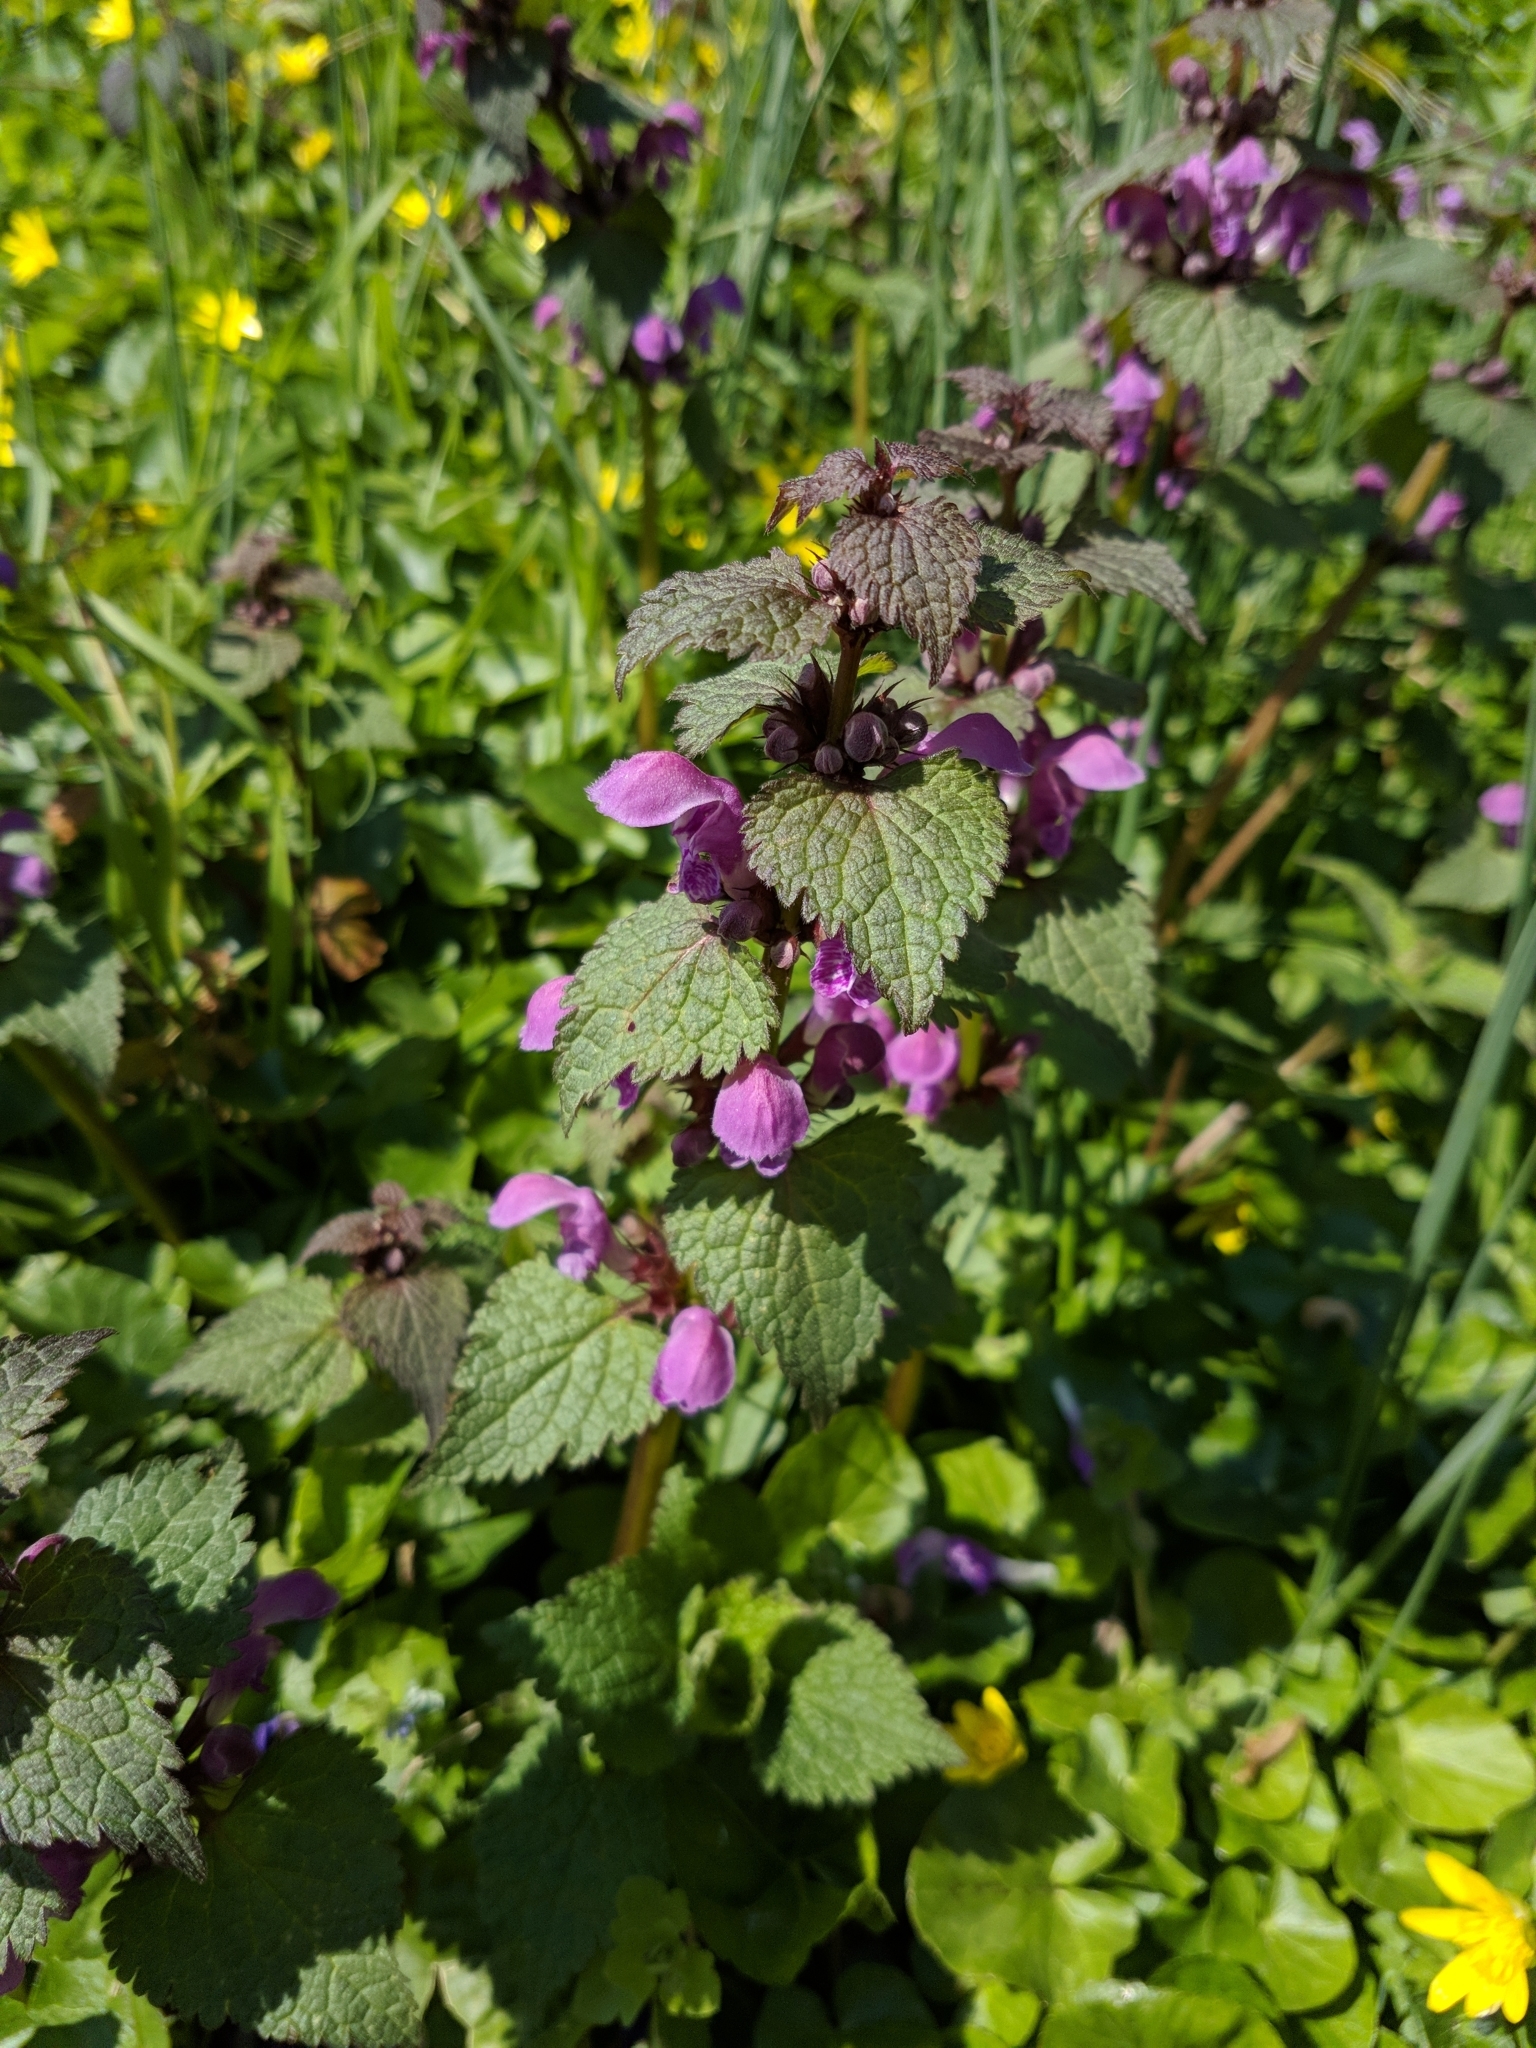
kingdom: Plantae
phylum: Tracheophyta
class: Magnoliopsida
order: Lamiales
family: Lamiaceae
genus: Lamium
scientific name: Lamium maculatum
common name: Spotted dead-nettle
